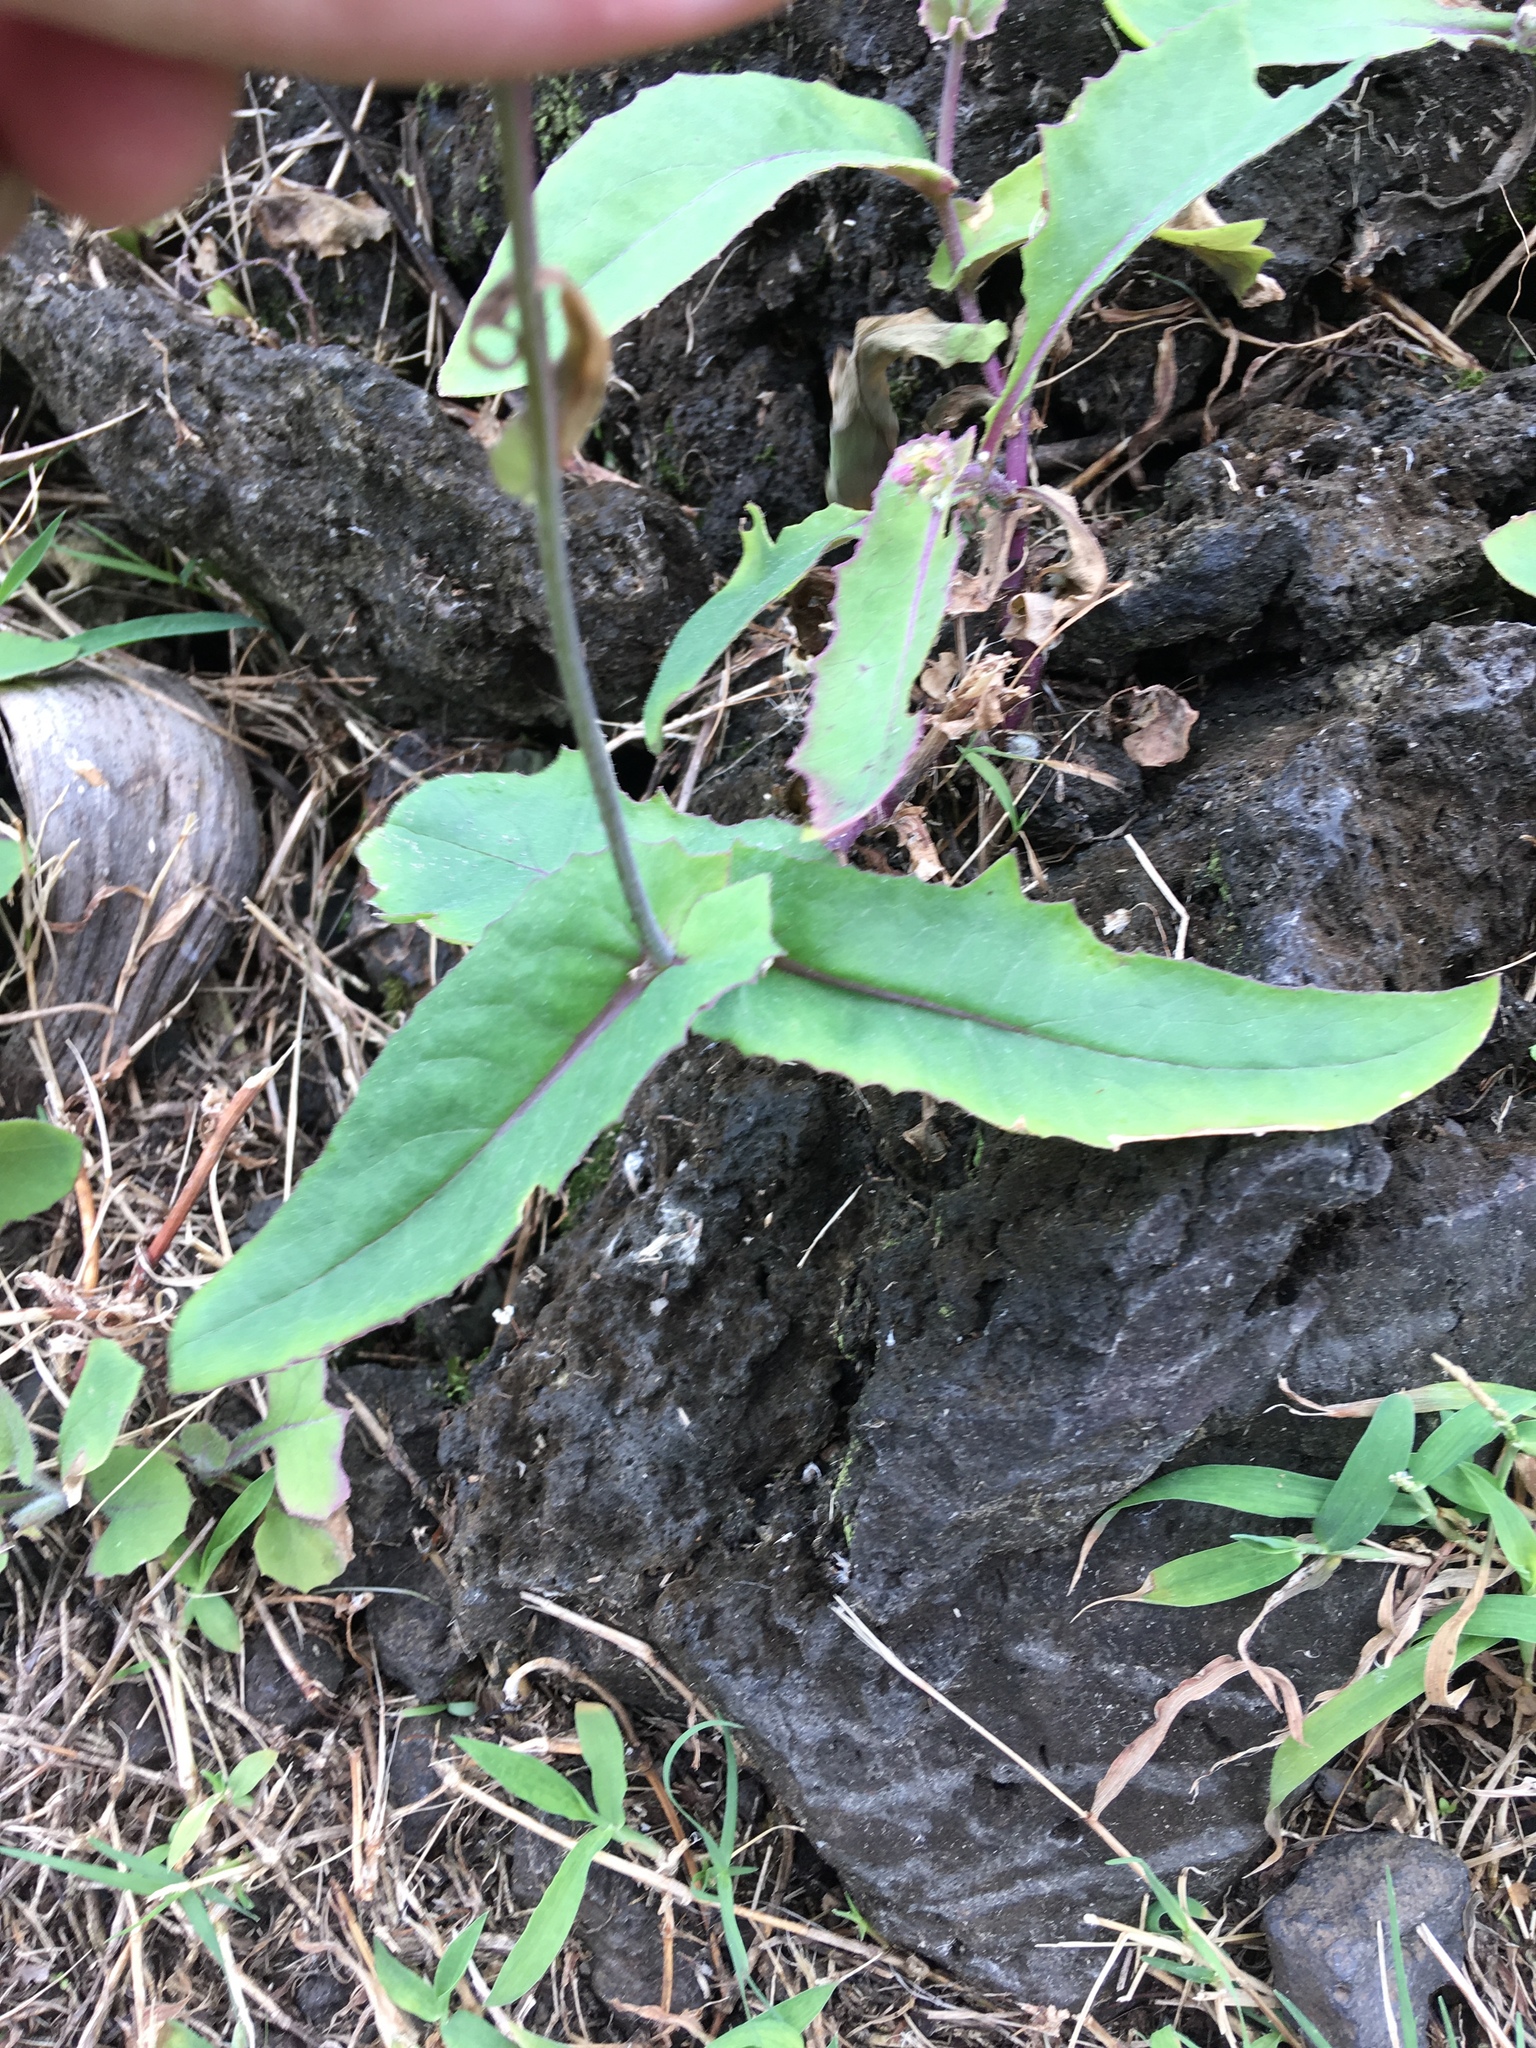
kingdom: Plantae
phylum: Tracheophyta
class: Magnoliopsida
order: Asterales
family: Asteraceae
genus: Emilia
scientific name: Emilia sonchifolia
